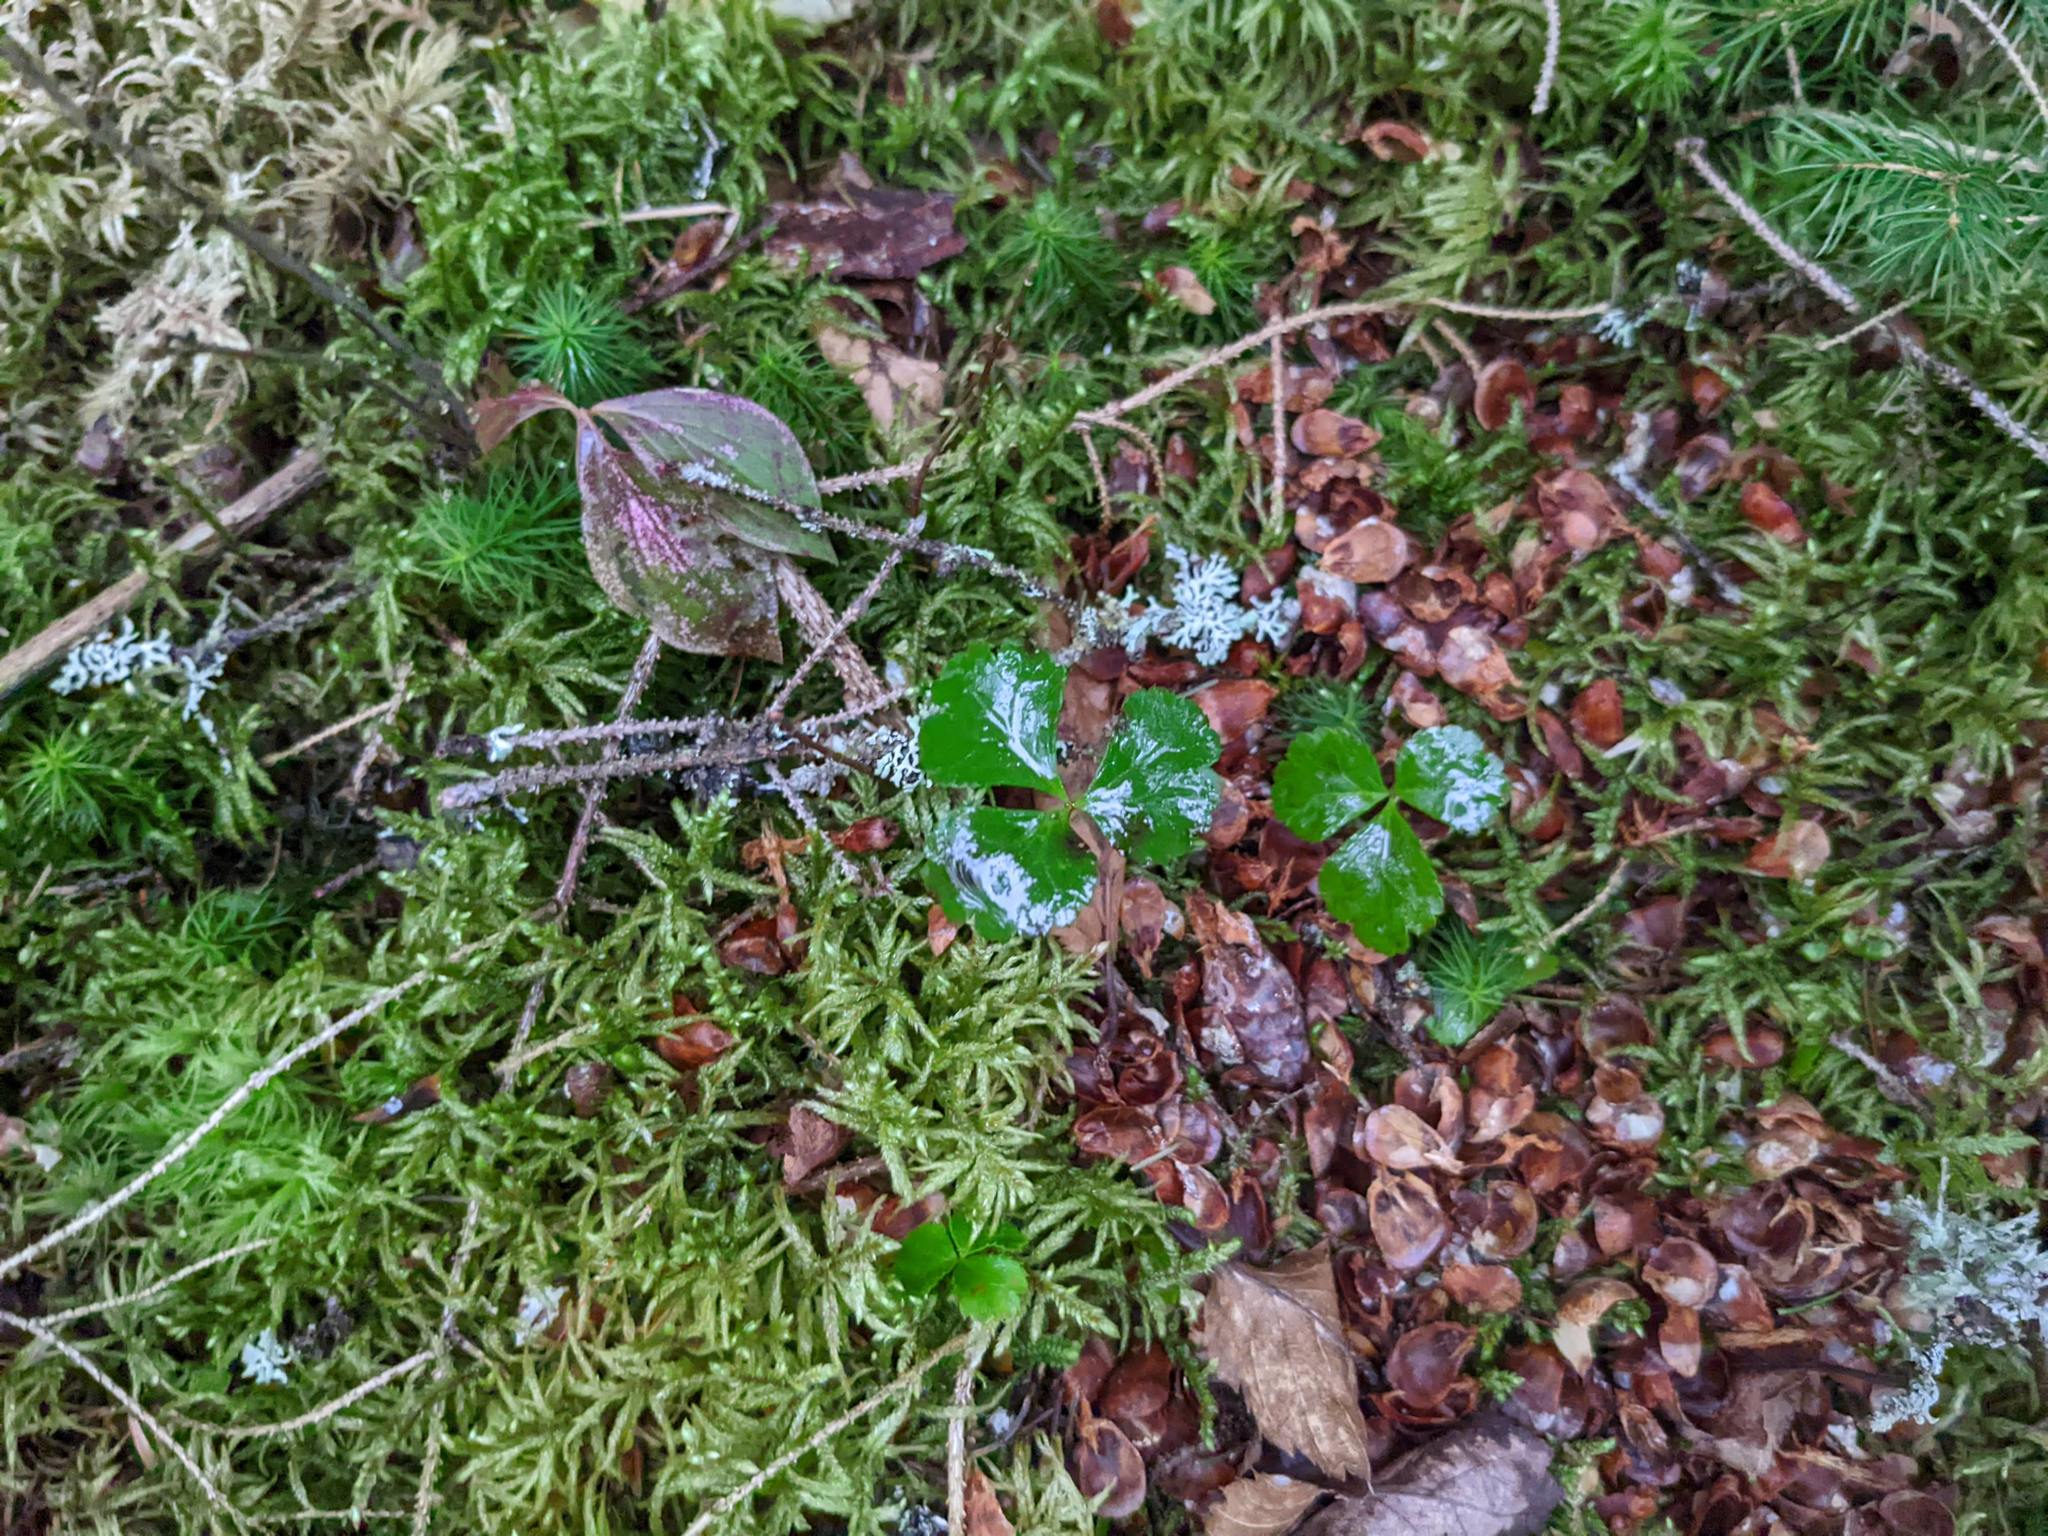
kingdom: Plantae
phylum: Tracheophyta
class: Magnoliopsida
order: Ranunculales
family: Ranunculaceae
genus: Coptis
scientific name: Coptis trifolia
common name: Canker-root
